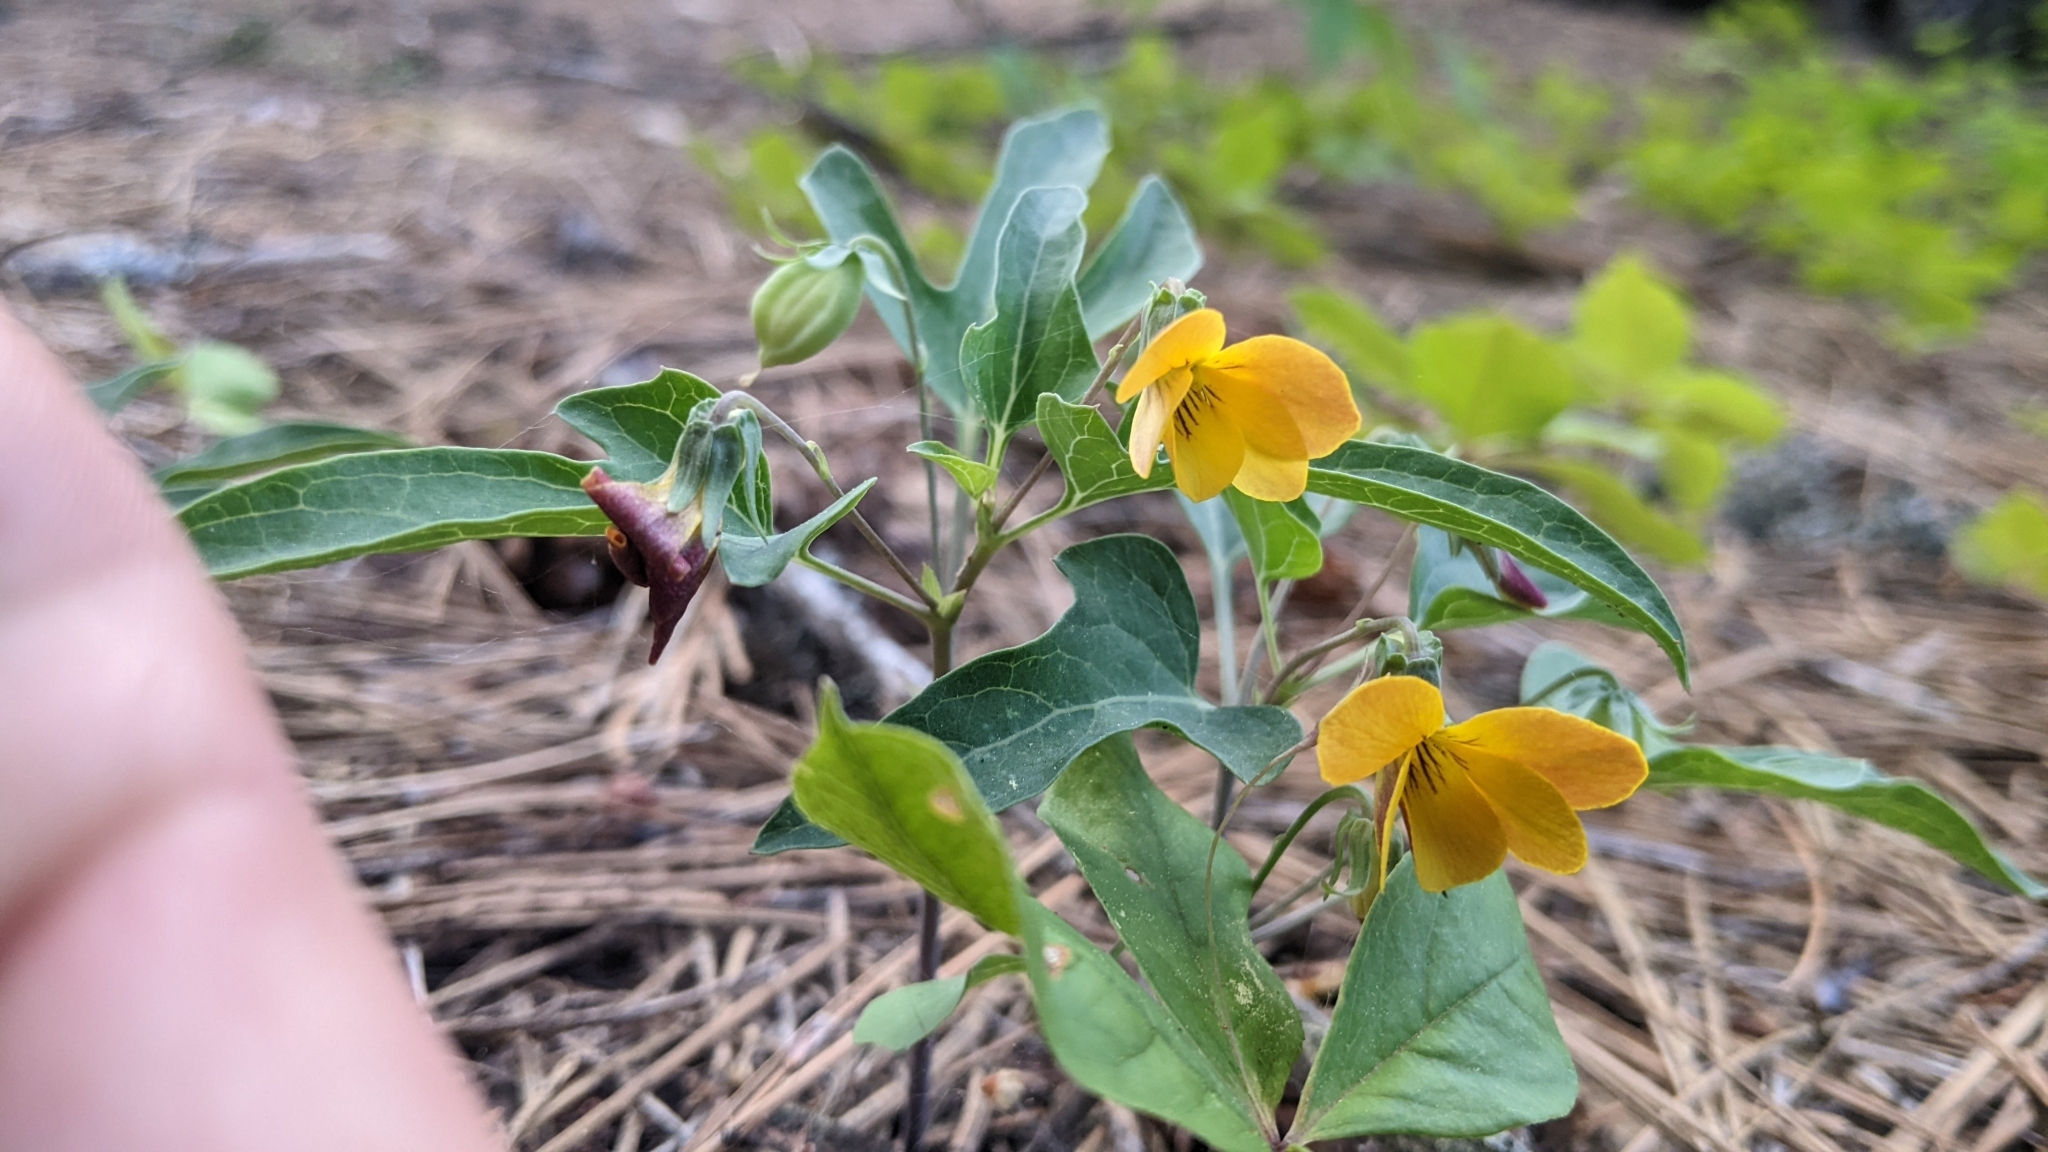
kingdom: Plantae
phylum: Tracheophyta
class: Magnoliopsida
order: Malpighiales
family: Violaceae
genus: Viola
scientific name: Viola lobata
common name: Pine violet
